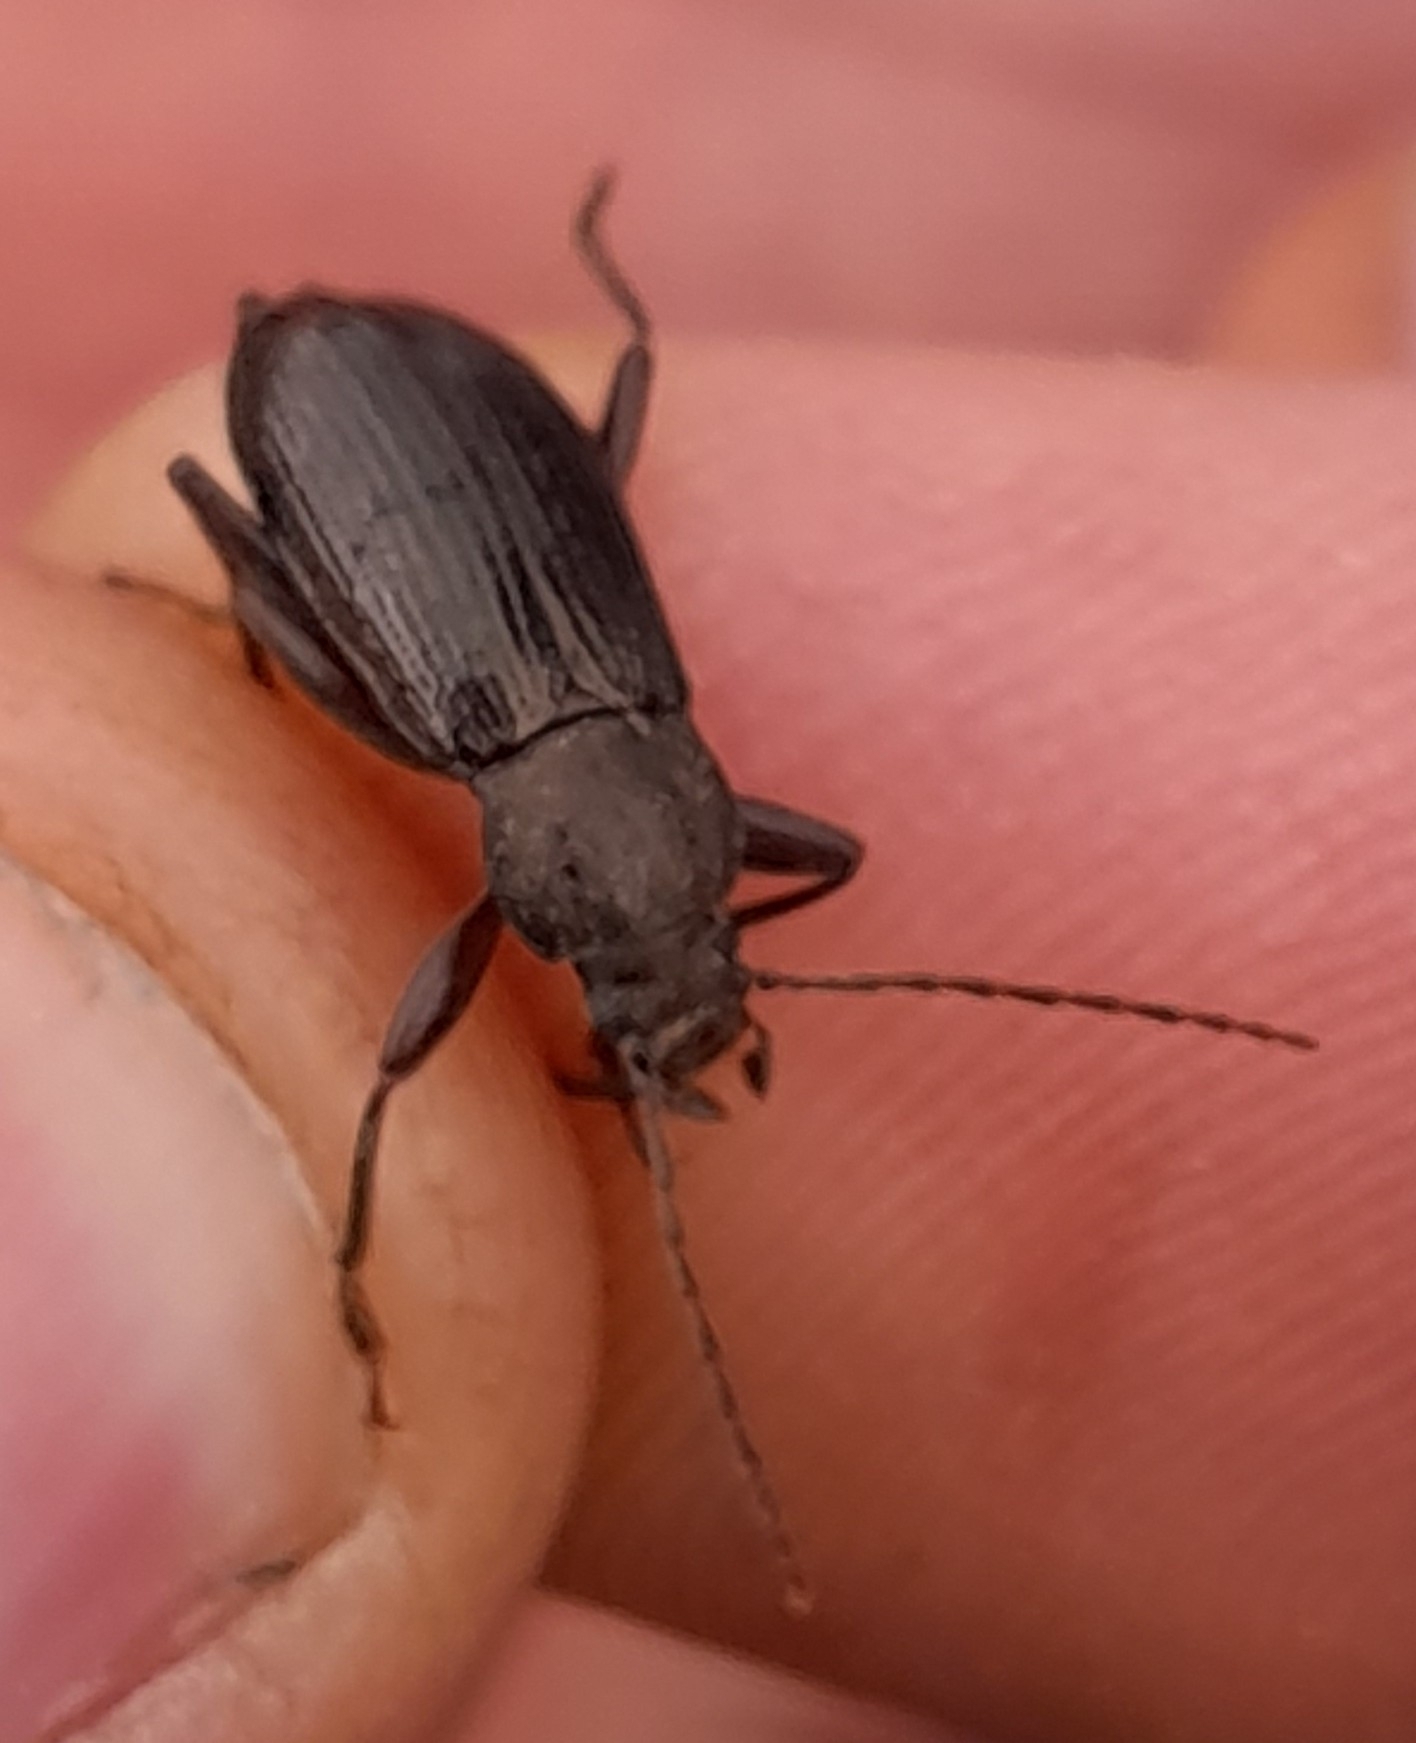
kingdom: Animalia
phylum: Arthropoda
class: Insecta
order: Coleoptera
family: Tenebrionidae
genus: Stenomax
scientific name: Stenomax aeneus
